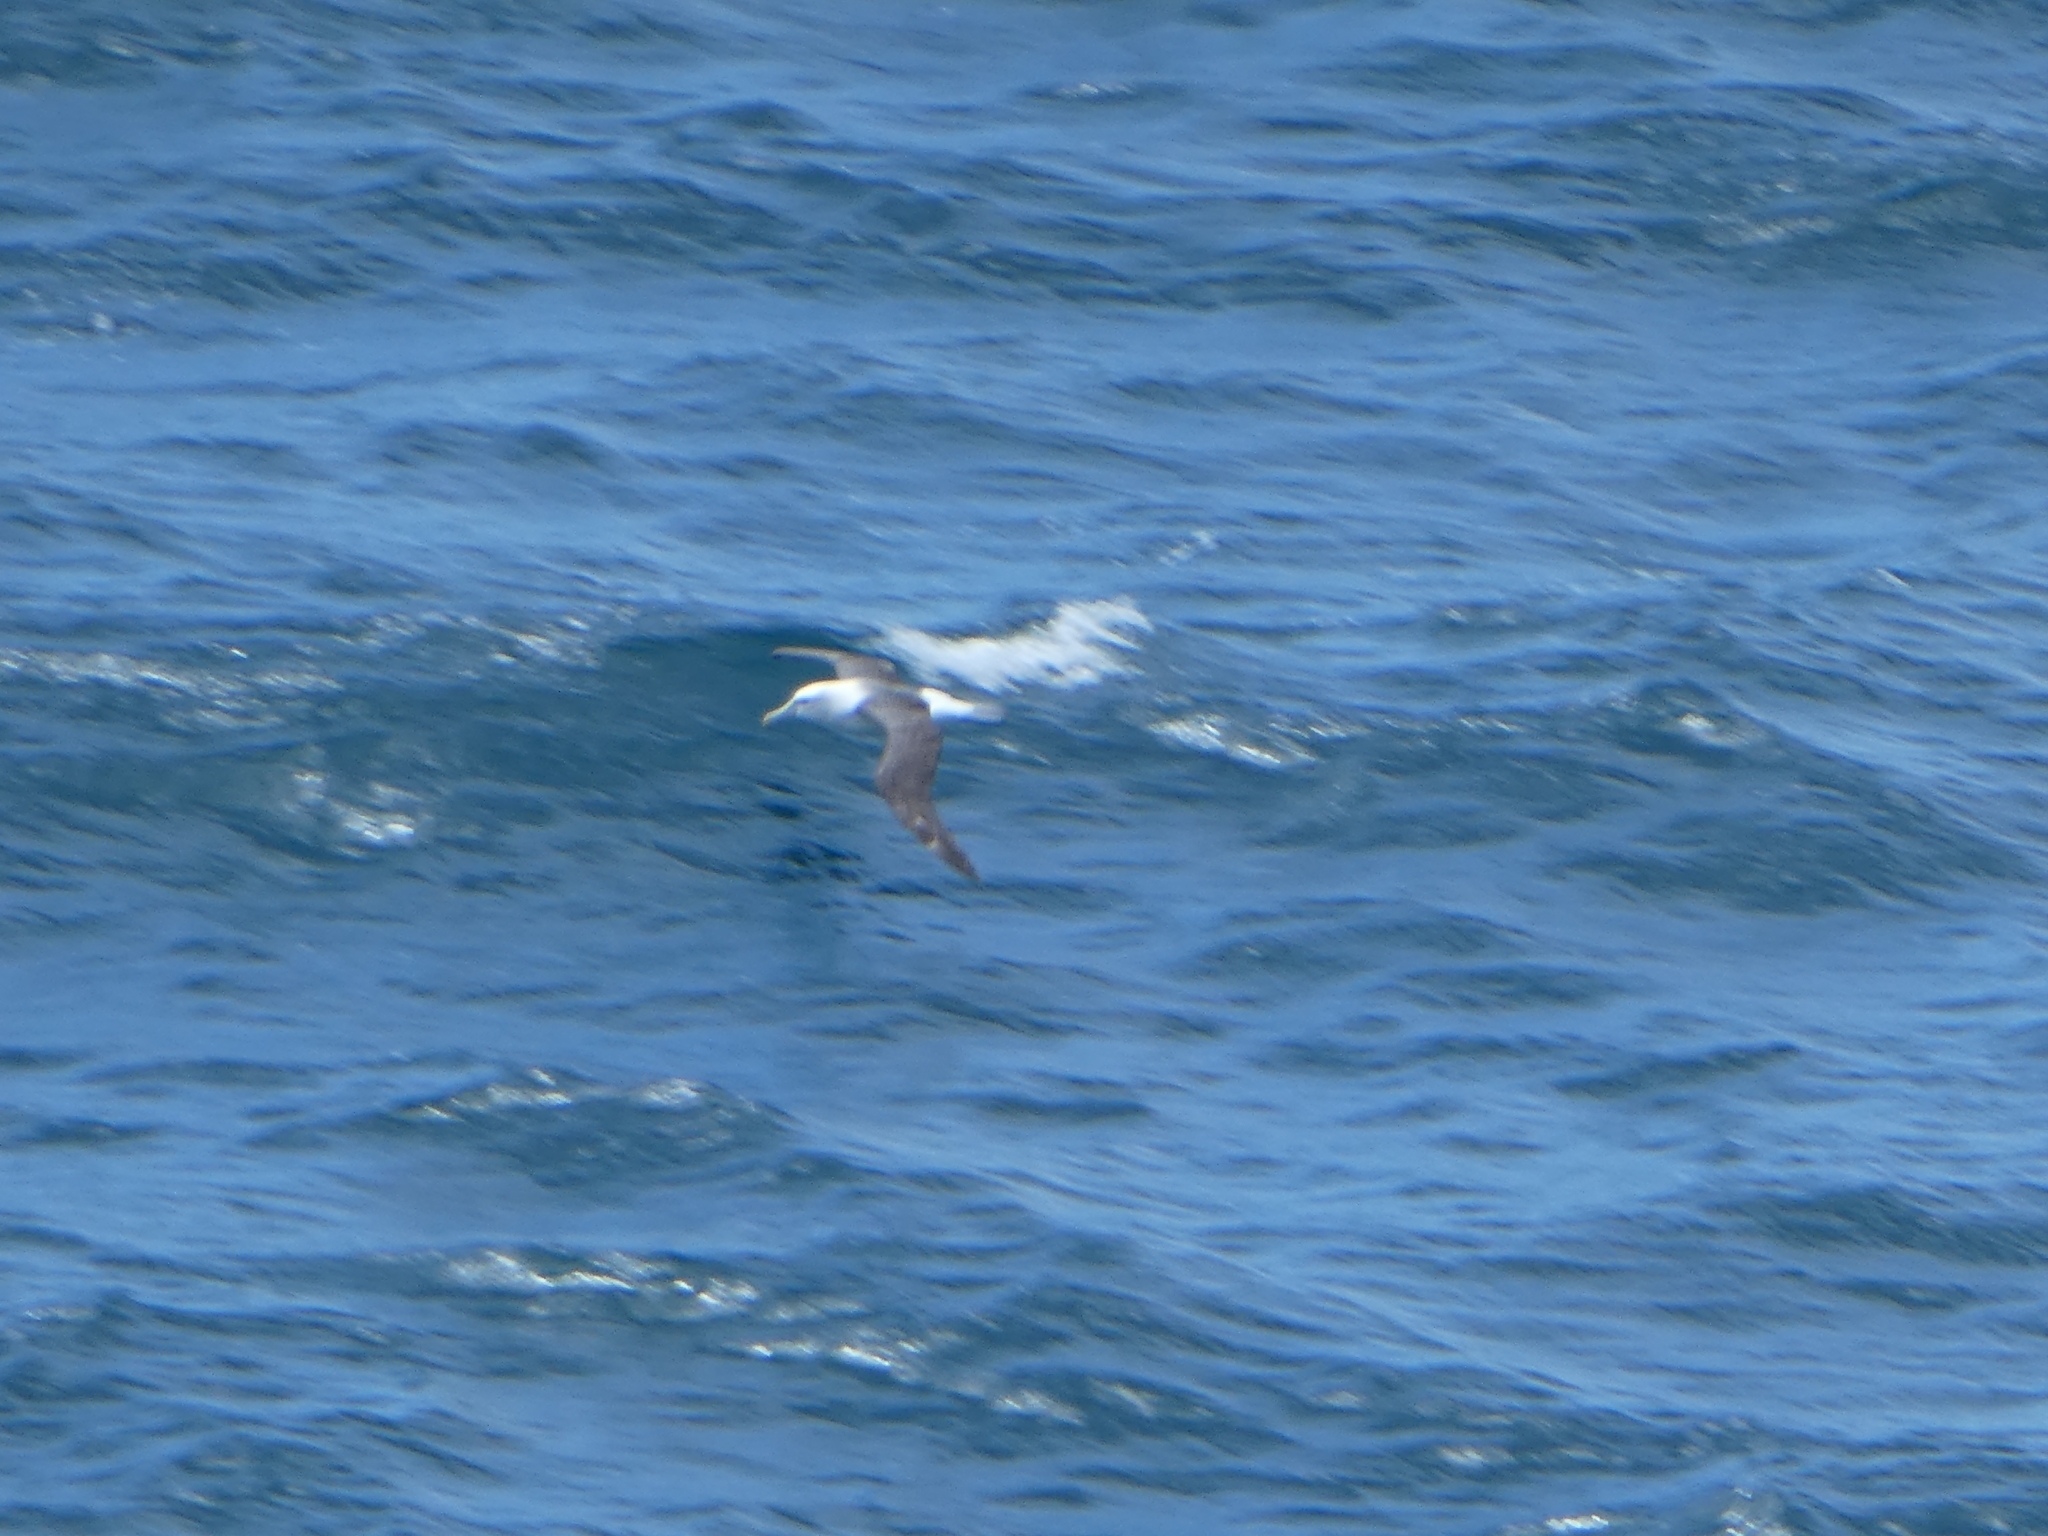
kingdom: Animalia
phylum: Chordata
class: Aves
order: Procellariiformes
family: Diomedeidae
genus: Thalassarche
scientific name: Thalassarche cauta
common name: Shy albatross
